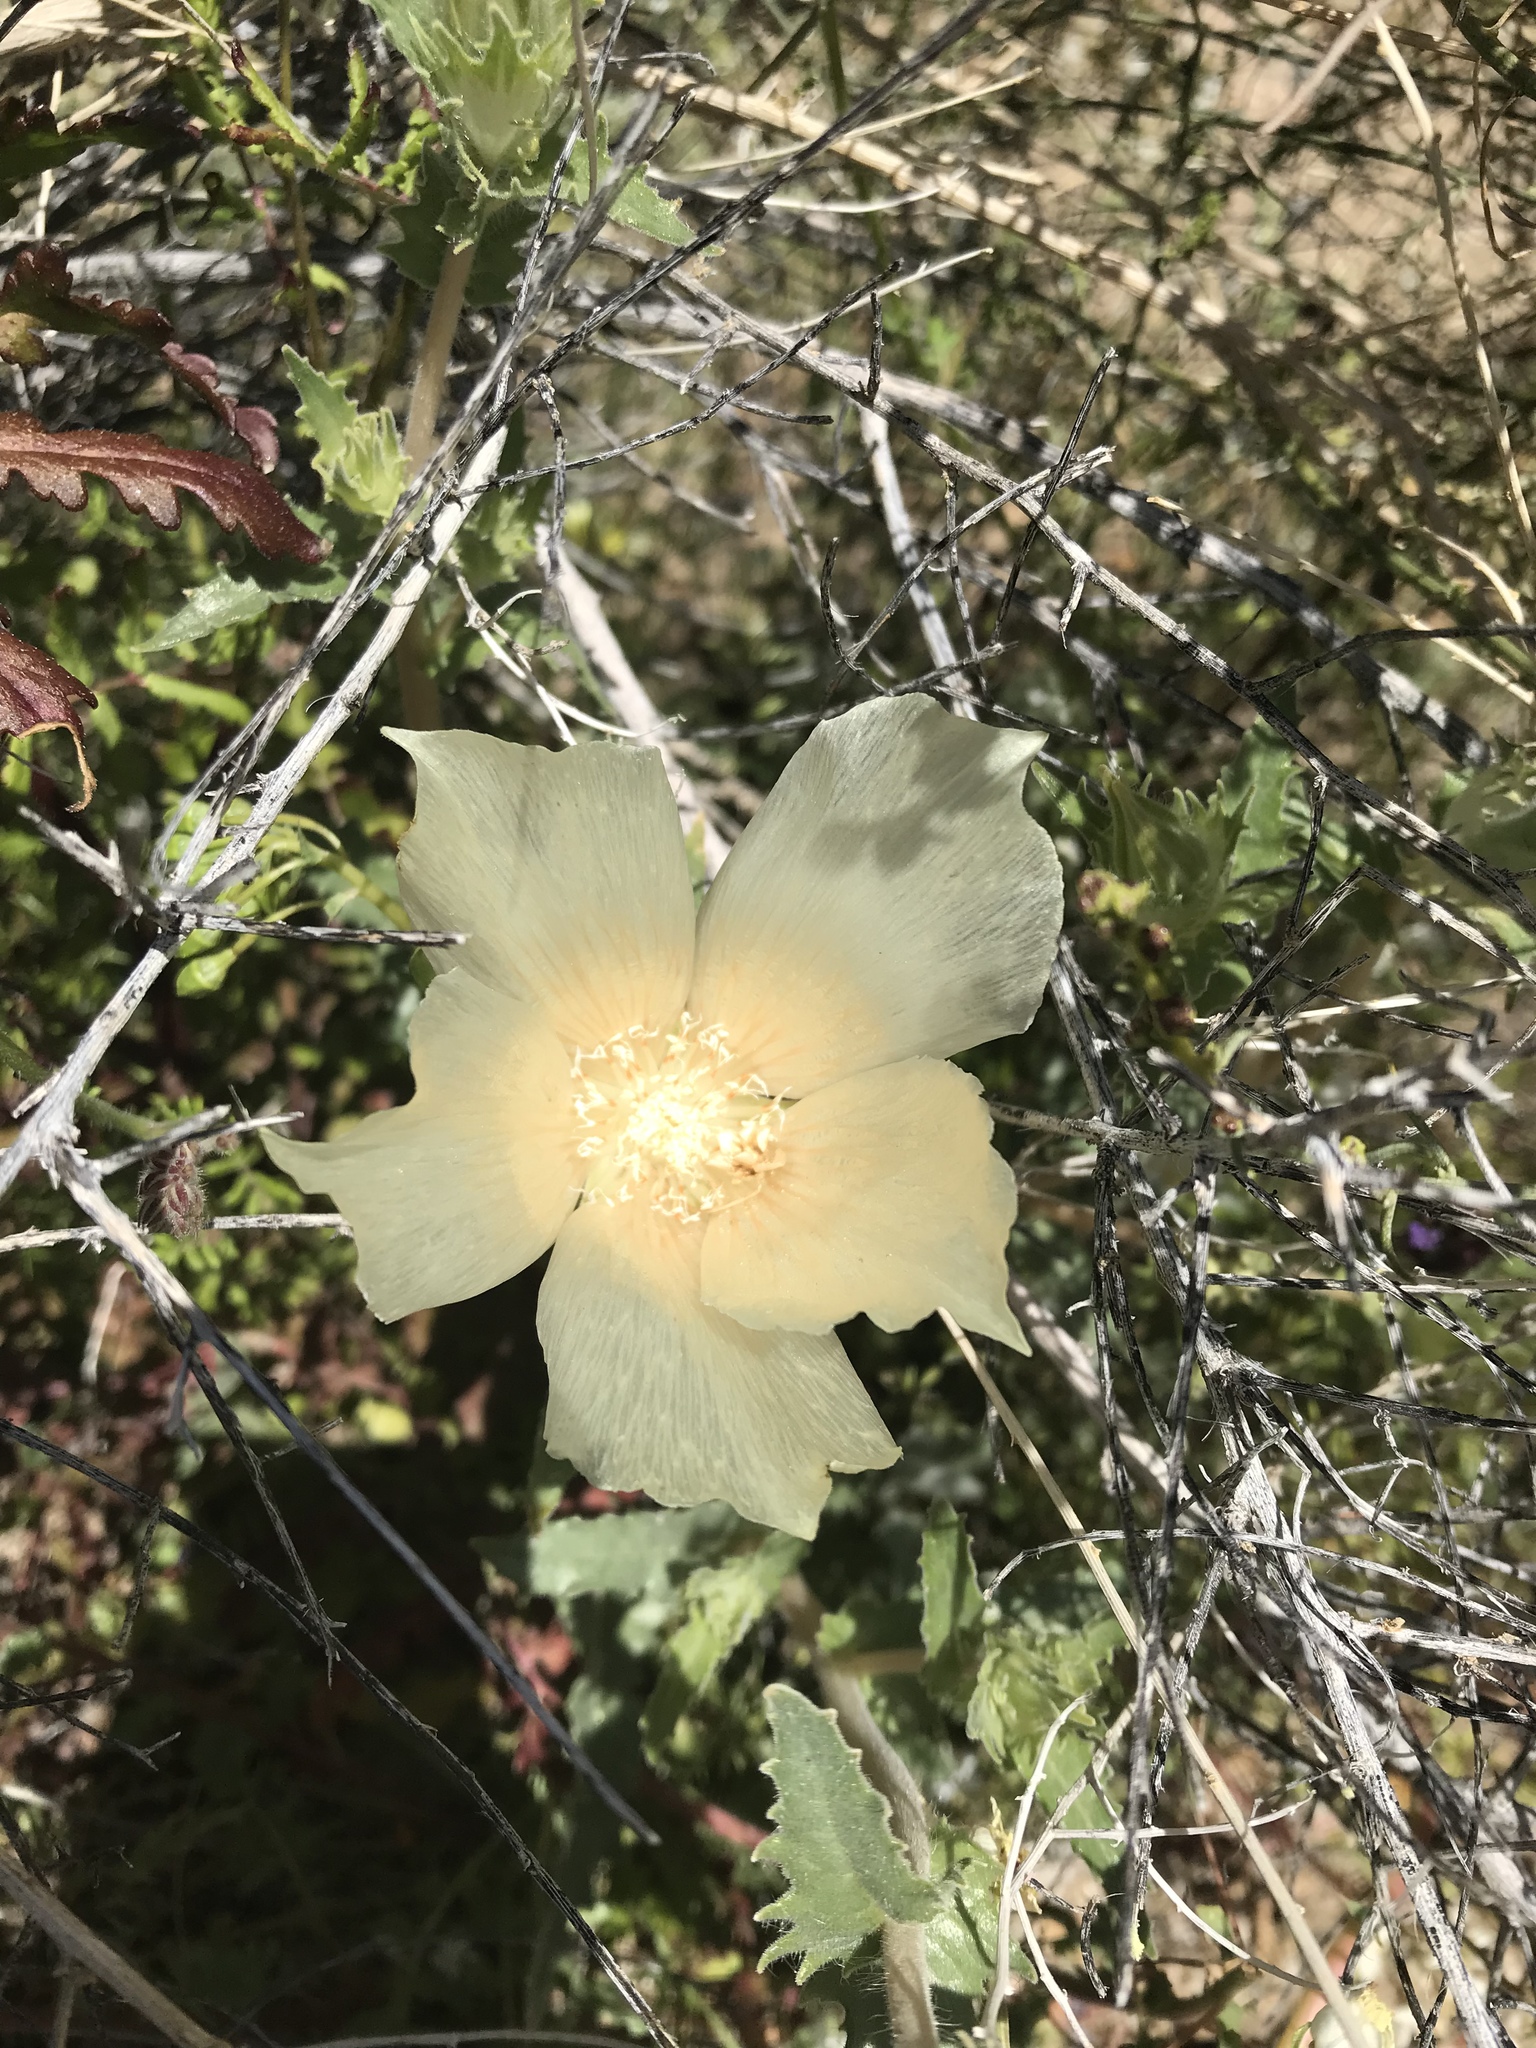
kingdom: Plantae
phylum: Tracheophyta
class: Magnoliopsida
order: Cornales
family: Loasaceae
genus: Mentzelia
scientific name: Mentzelia involucrata
